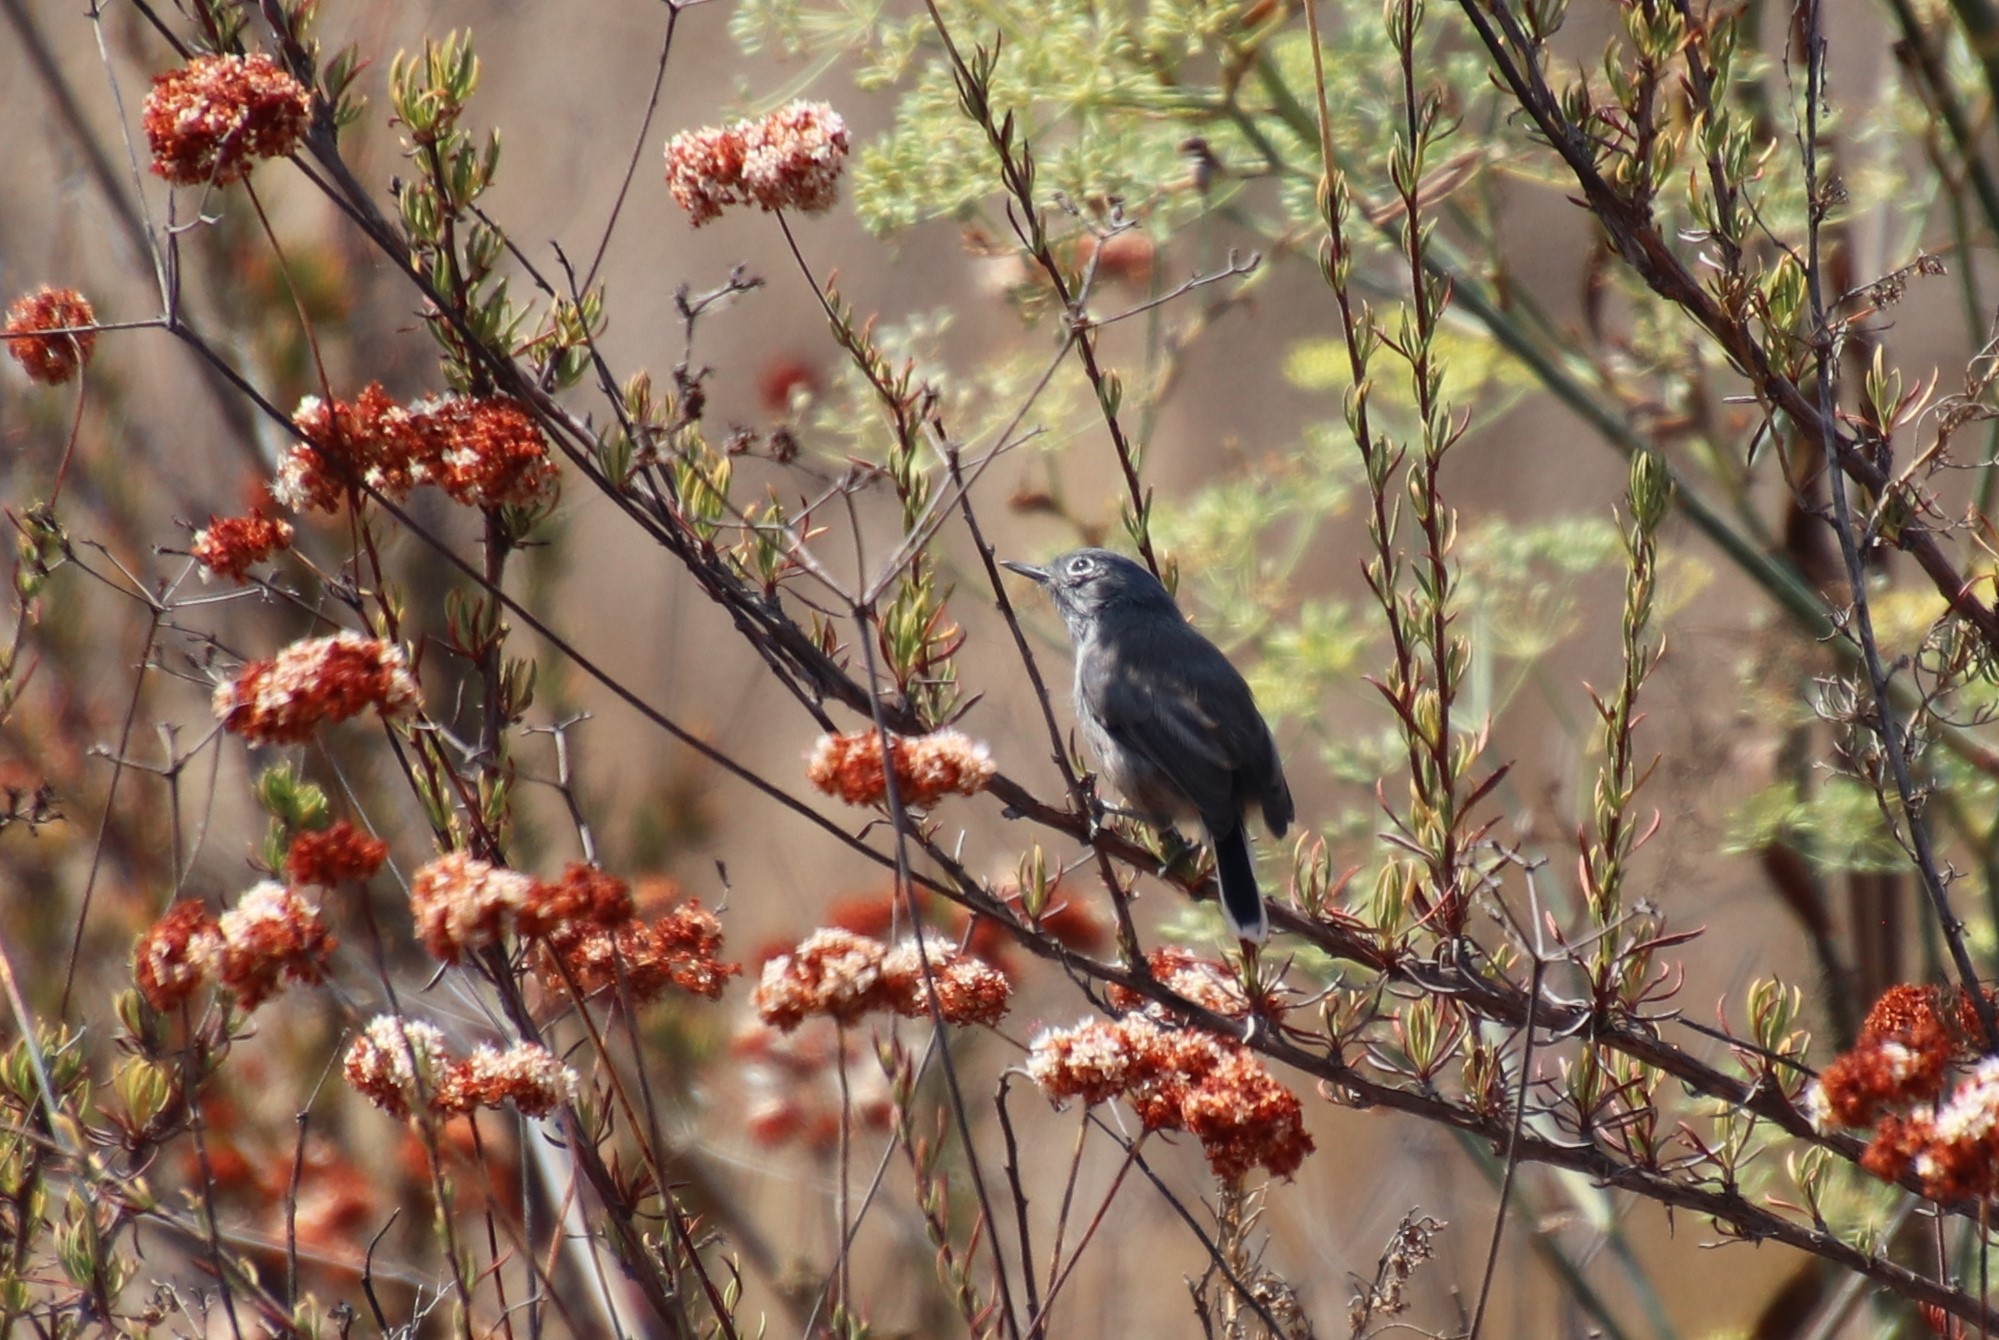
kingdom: Animalia
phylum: Chordata
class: Aves
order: Passeriformes
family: Polioptilidae
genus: Polioptila
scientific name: Polioptila caerulea
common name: Blue-gray gnatcatcher
